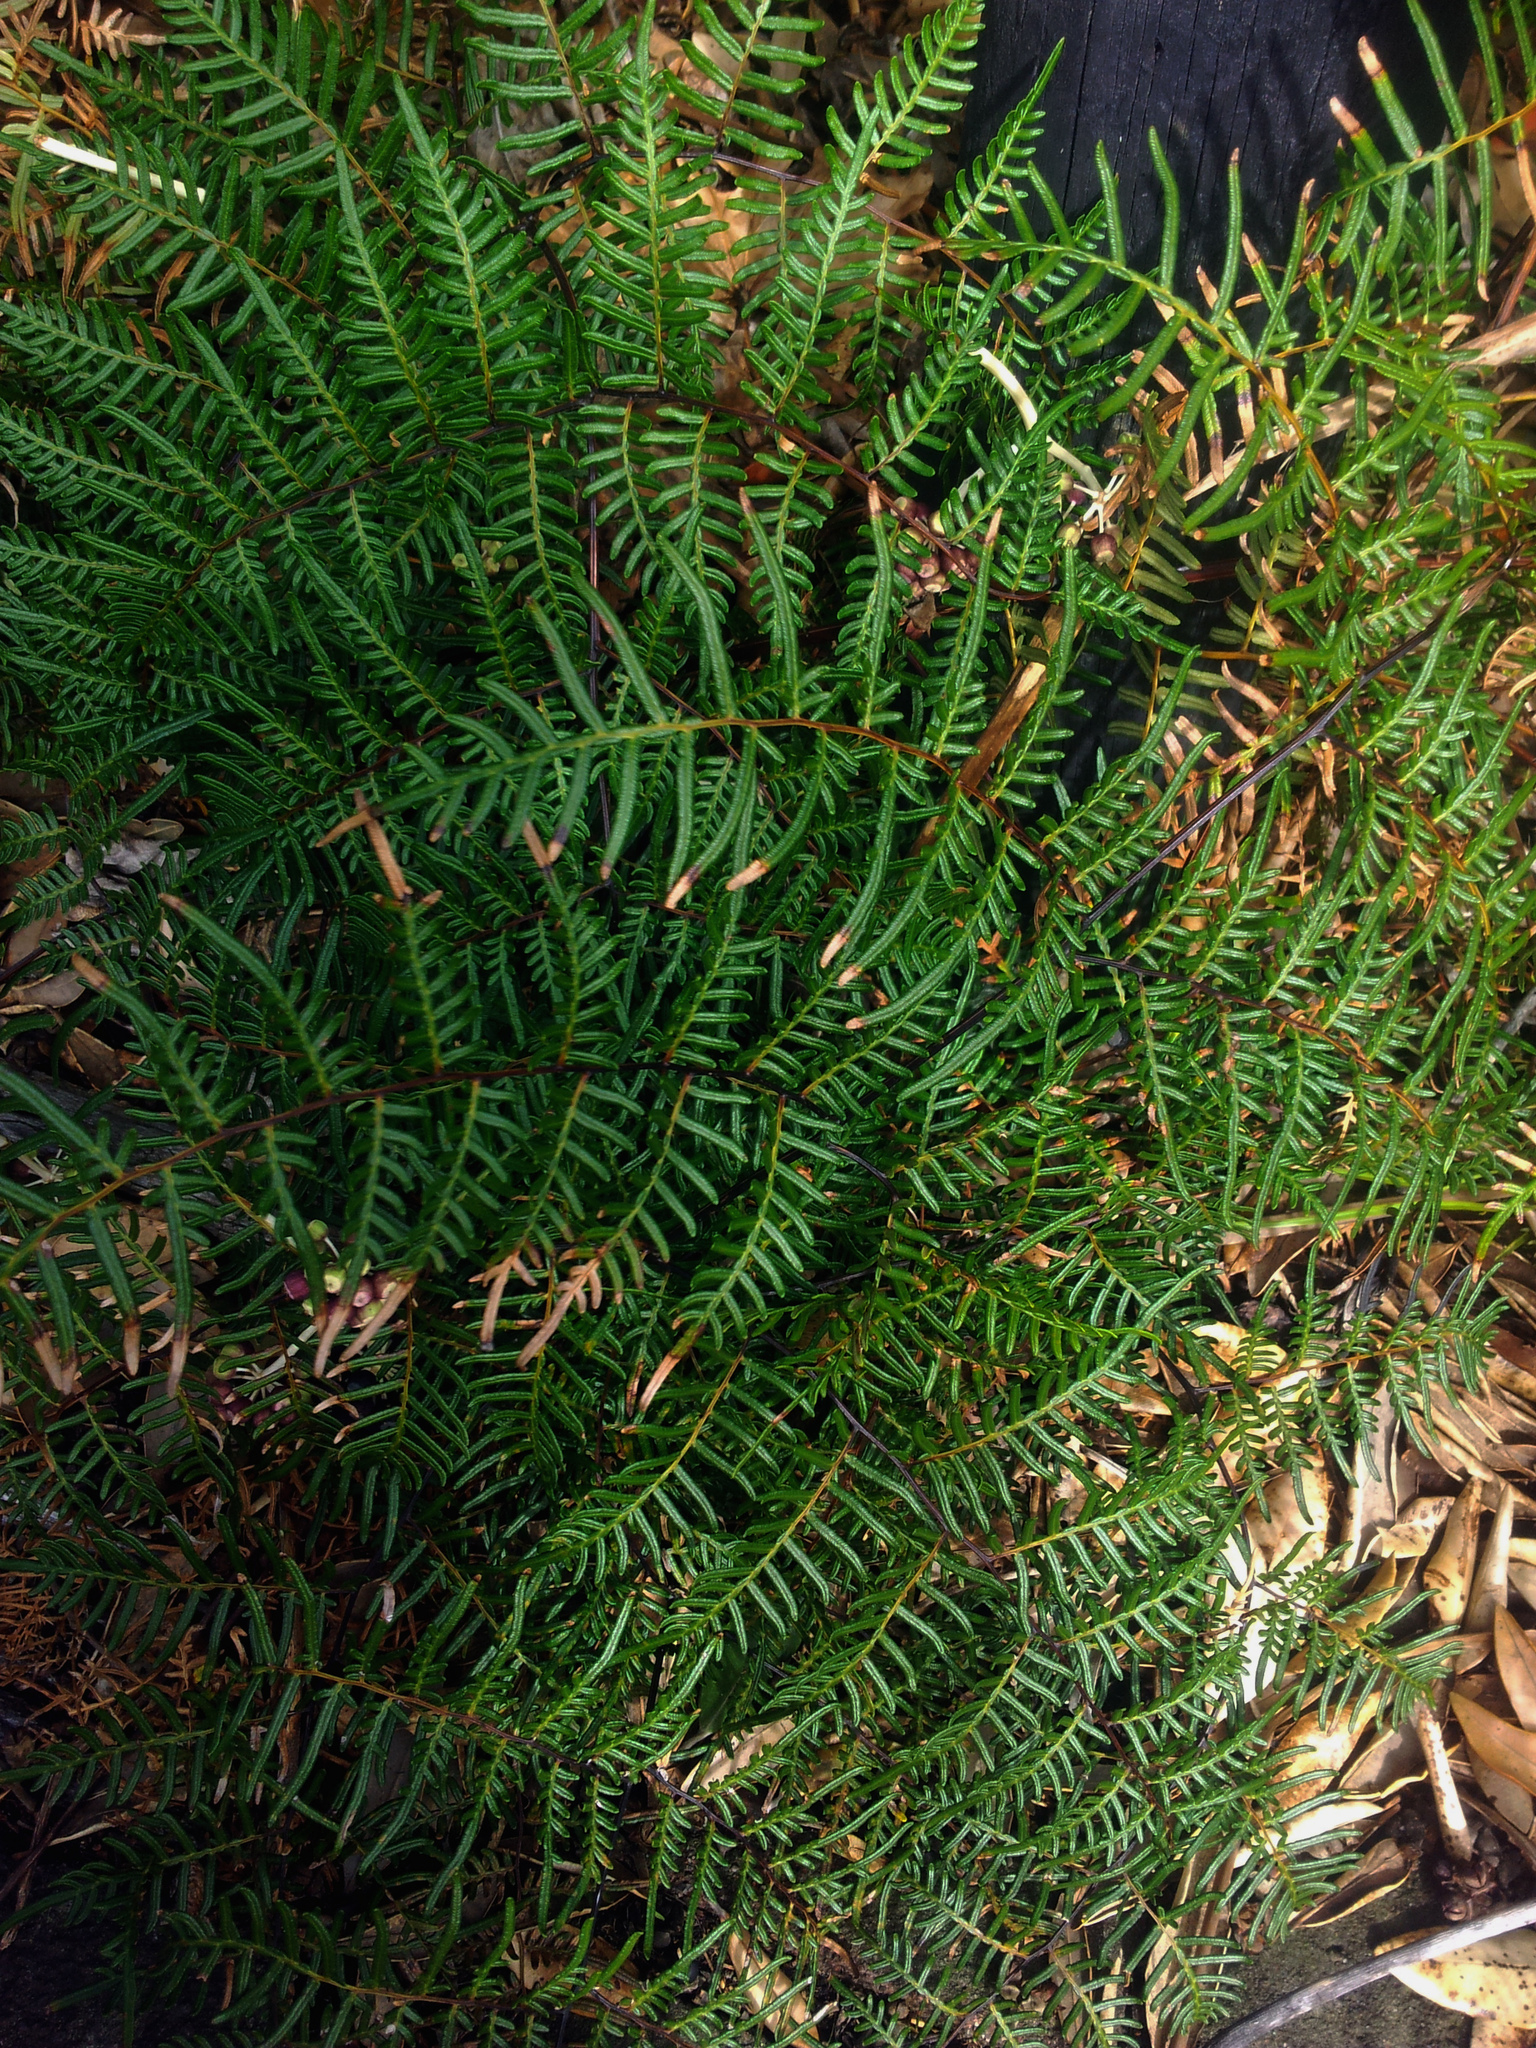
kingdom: Plantae
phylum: Tracheophyta
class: Polypodiopsida
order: Polypodiales
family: Dennstaedtiaceae
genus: Pteridium
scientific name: Pteridium esculentum
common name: Bracken fern
